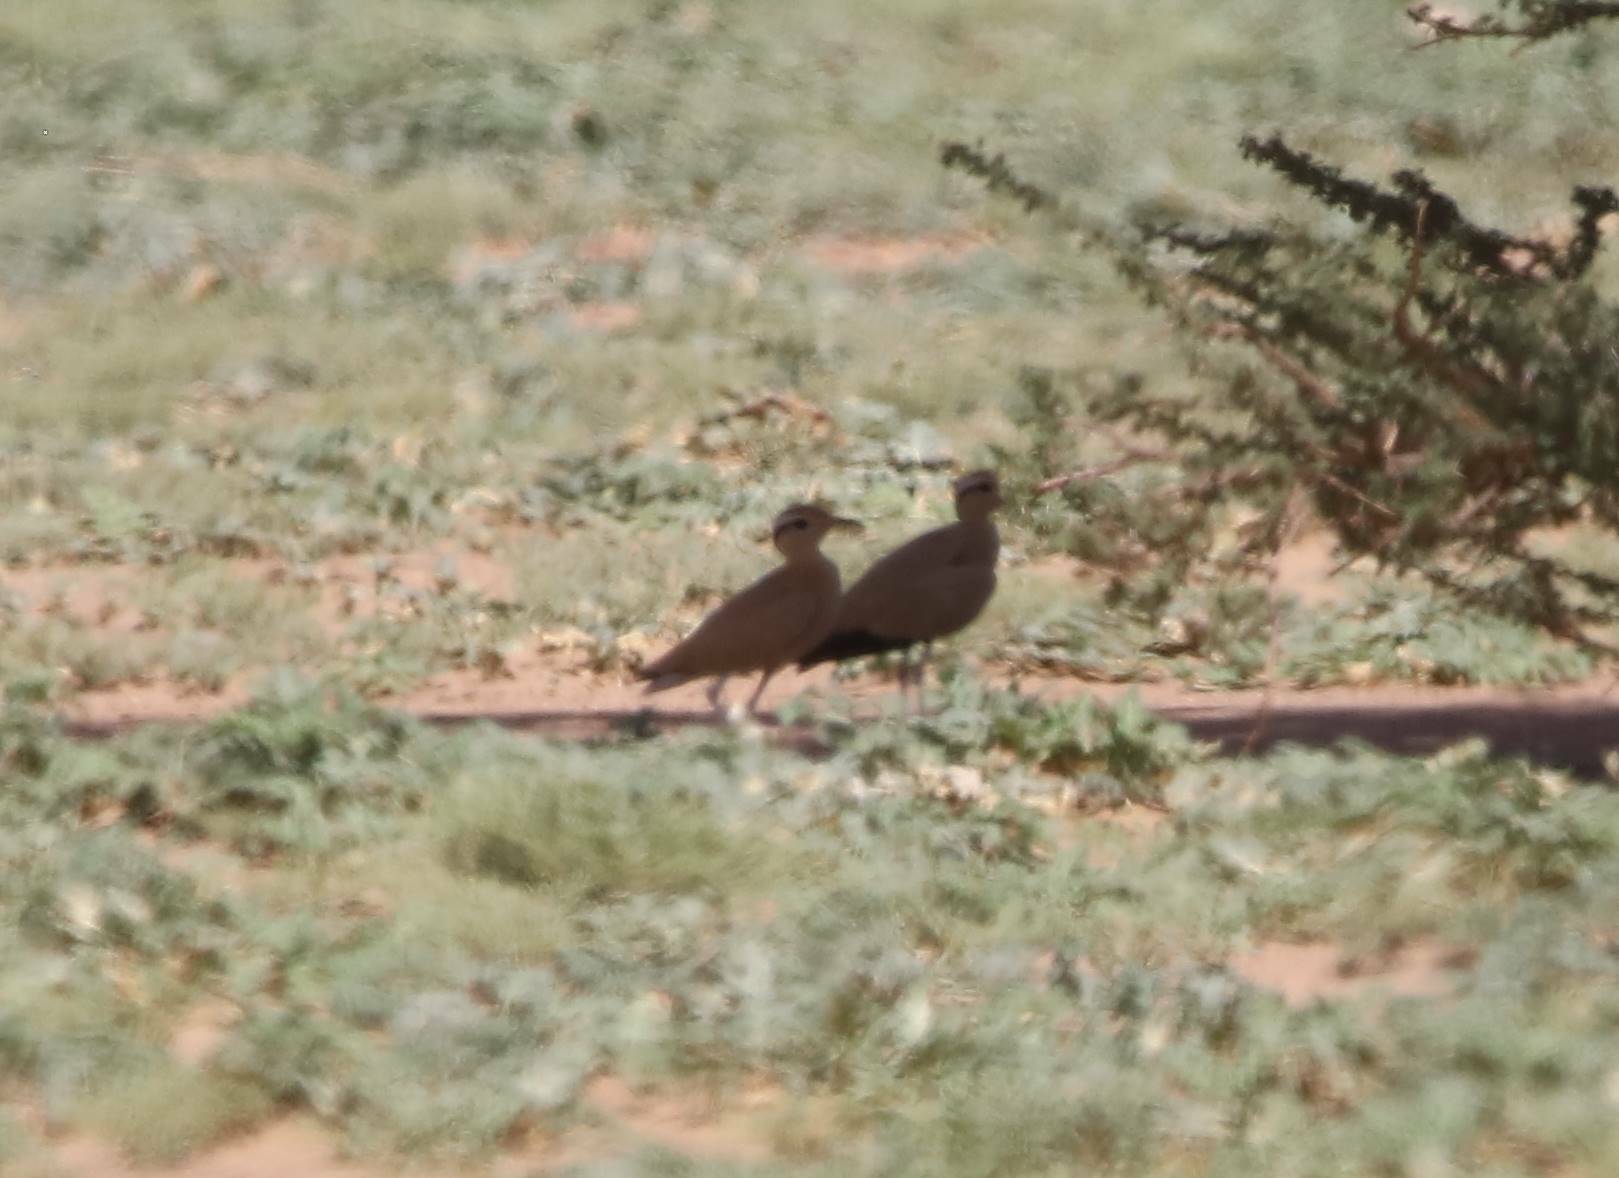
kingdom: Animalia
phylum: Chordata
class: Aves
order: Charadriiformes
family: Glareolidae
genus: Cursorius
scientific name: Cursorius cursor
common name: Cream-colored courser
